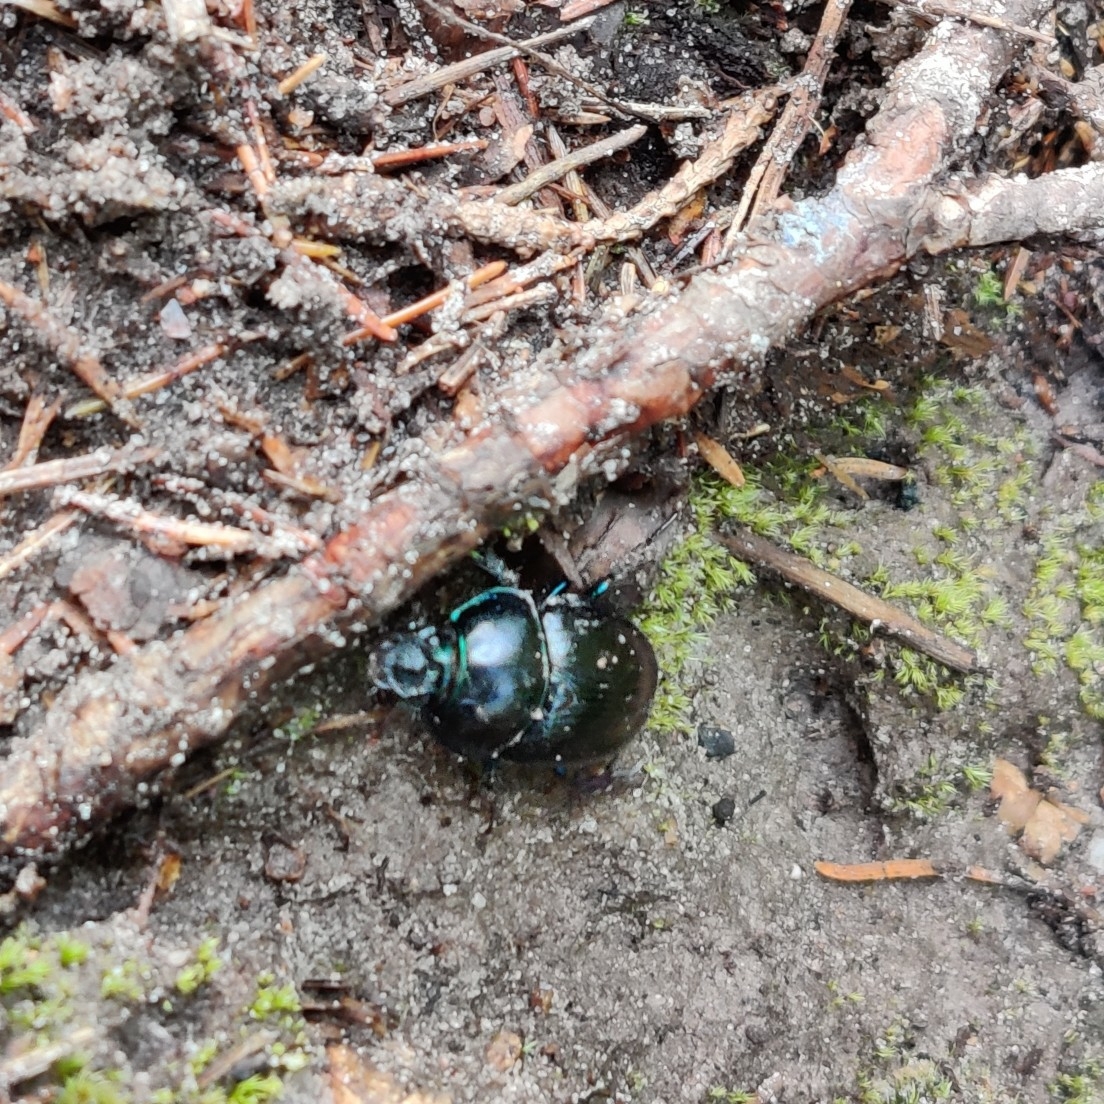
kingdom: Animalia
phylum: Arthropoda
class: Insecta
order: Coleoptera
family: Geotrupidae
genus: Anoplotrupes
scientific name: Anoplotrupes stercorosus
